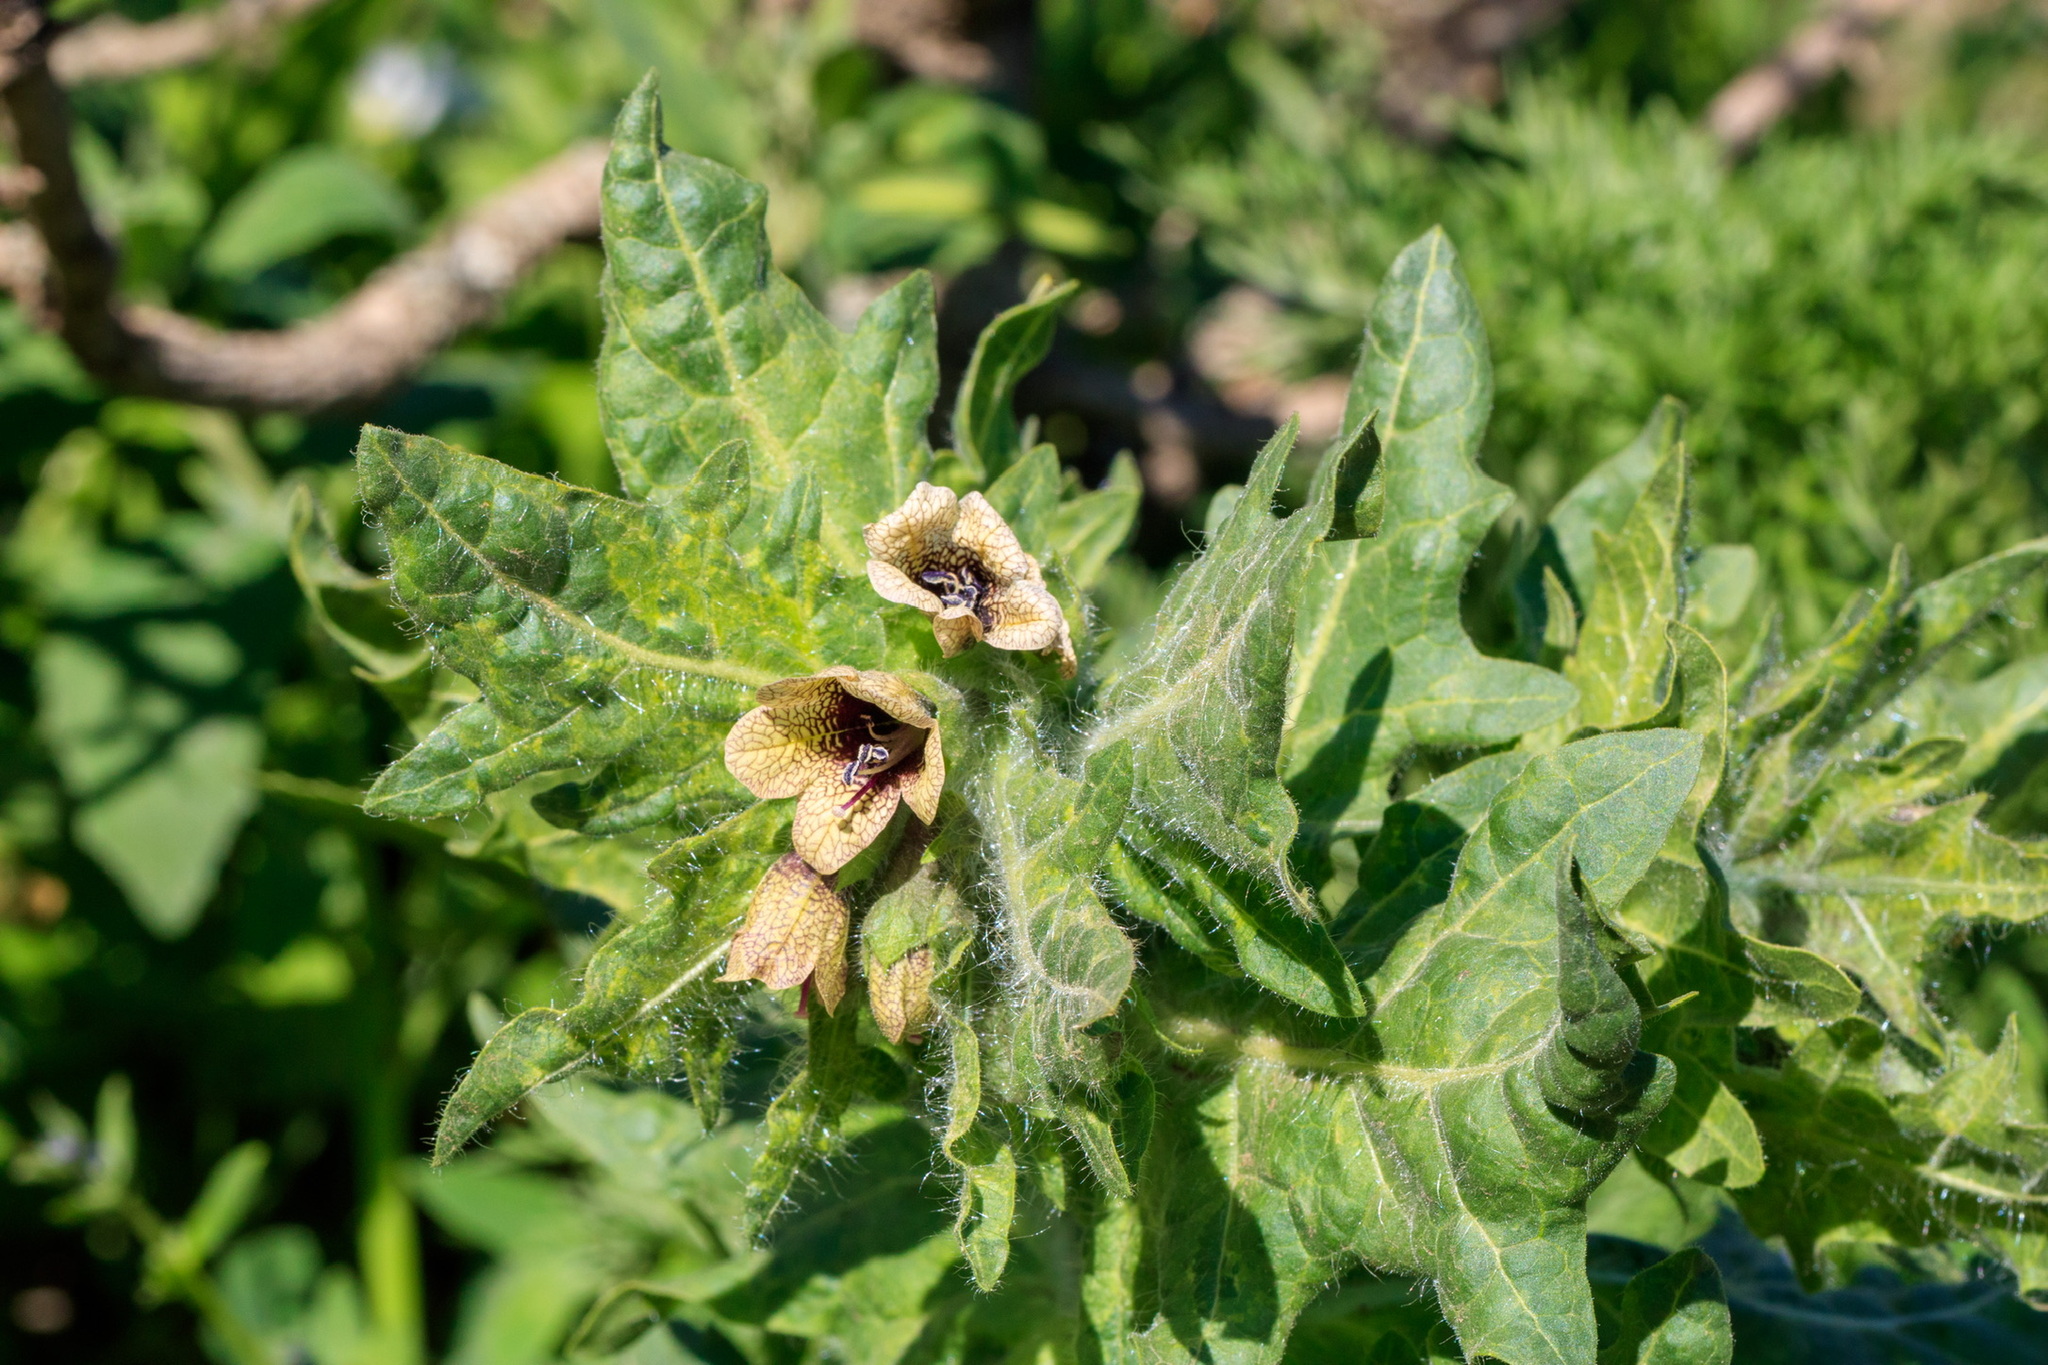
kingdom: Plantae
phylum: Tracheophyta
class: Magnoliopsida
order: Solanales
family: Solanaceae
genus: Hyoscyamus
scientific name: Hyoscyamus niger
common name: Henbane
